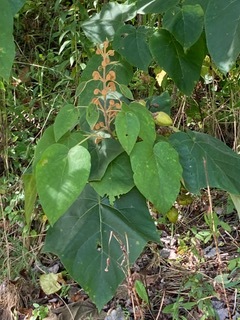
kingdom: Plantae
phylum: Tracheophyta
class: Magnoliopsida
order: Lamiales
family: Paulowniaceae
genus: Paulownia
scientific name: Paulownia tomentosa
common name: Foxglove-tree
